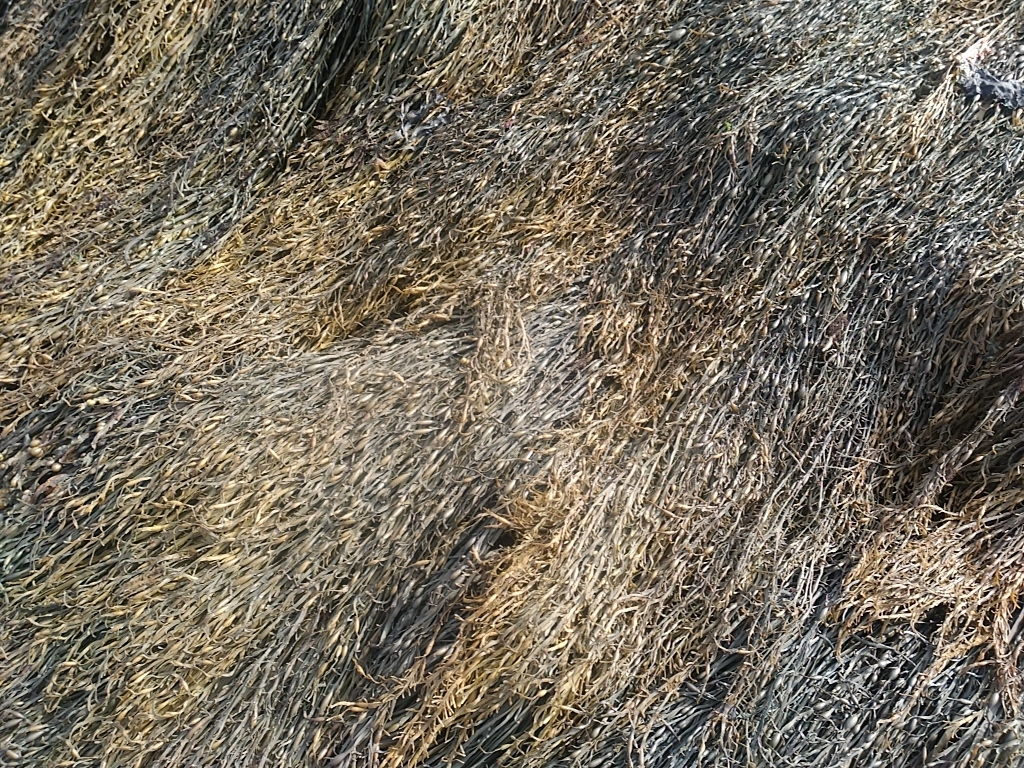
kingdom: Chromista
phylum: Ochrophyta
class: Phaeophyceae
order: Fucales
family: Fucaceae
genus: Ascophyllum
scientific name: Ascophyllum nodosum
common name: Knotted wrack
